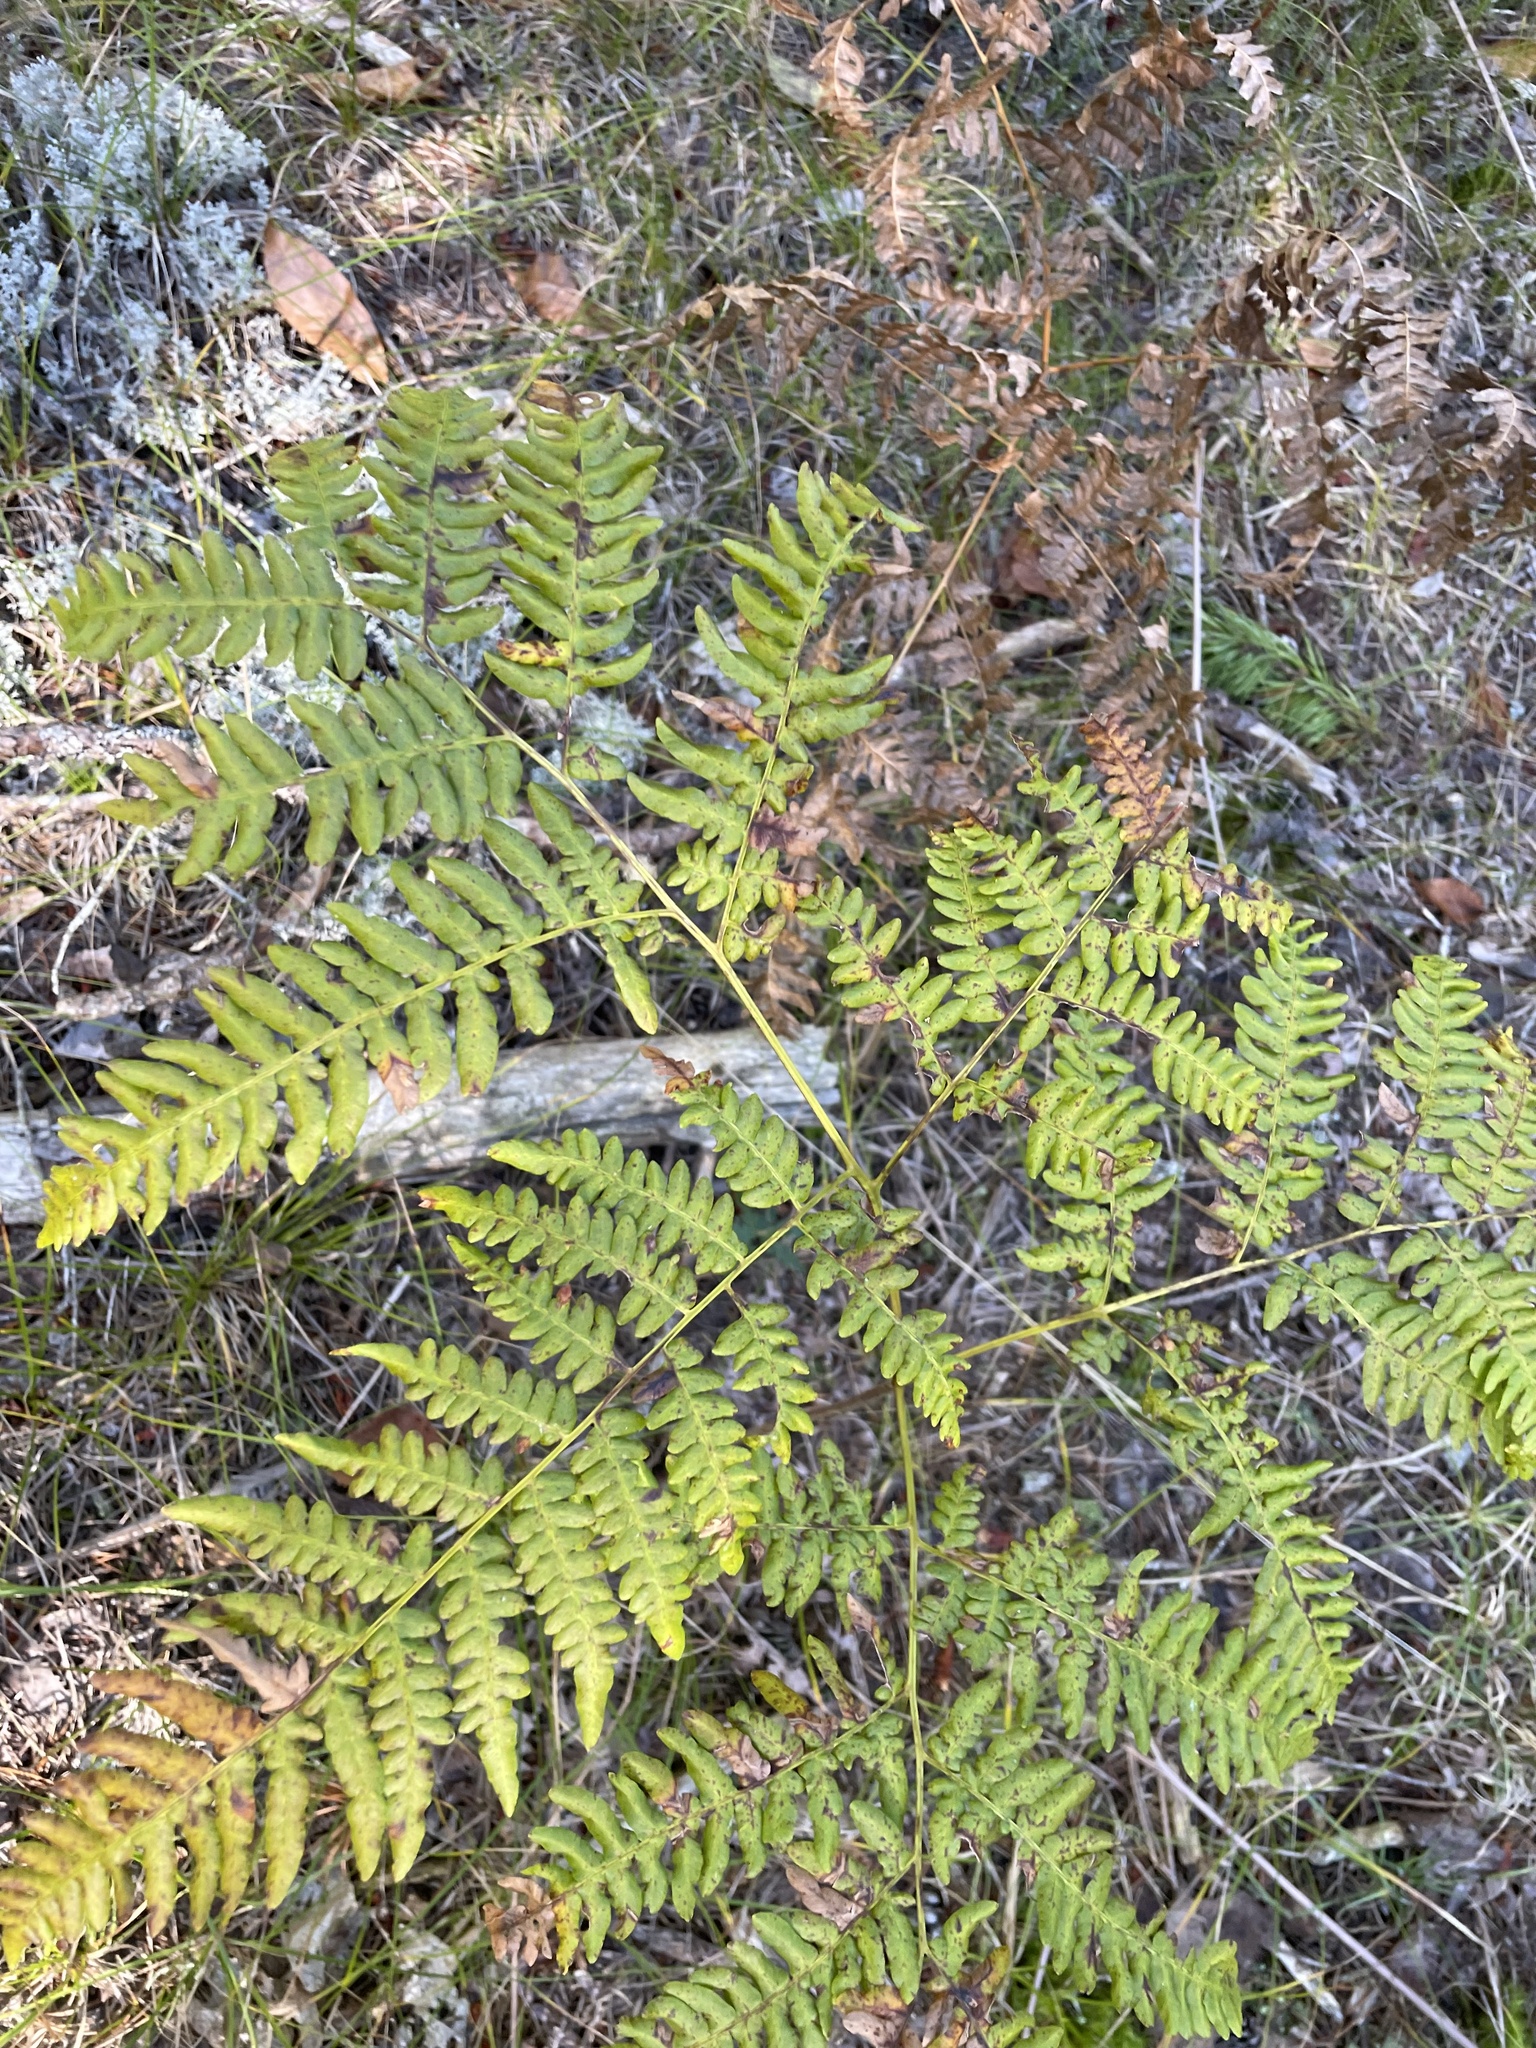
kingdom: Plantae
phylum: Tracheophyta
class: Polypodiopsida
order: Polypodiales
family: Dennstaedtiaceae
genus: Pteridium
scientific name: Pteridium aquilinum
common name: Bracken
